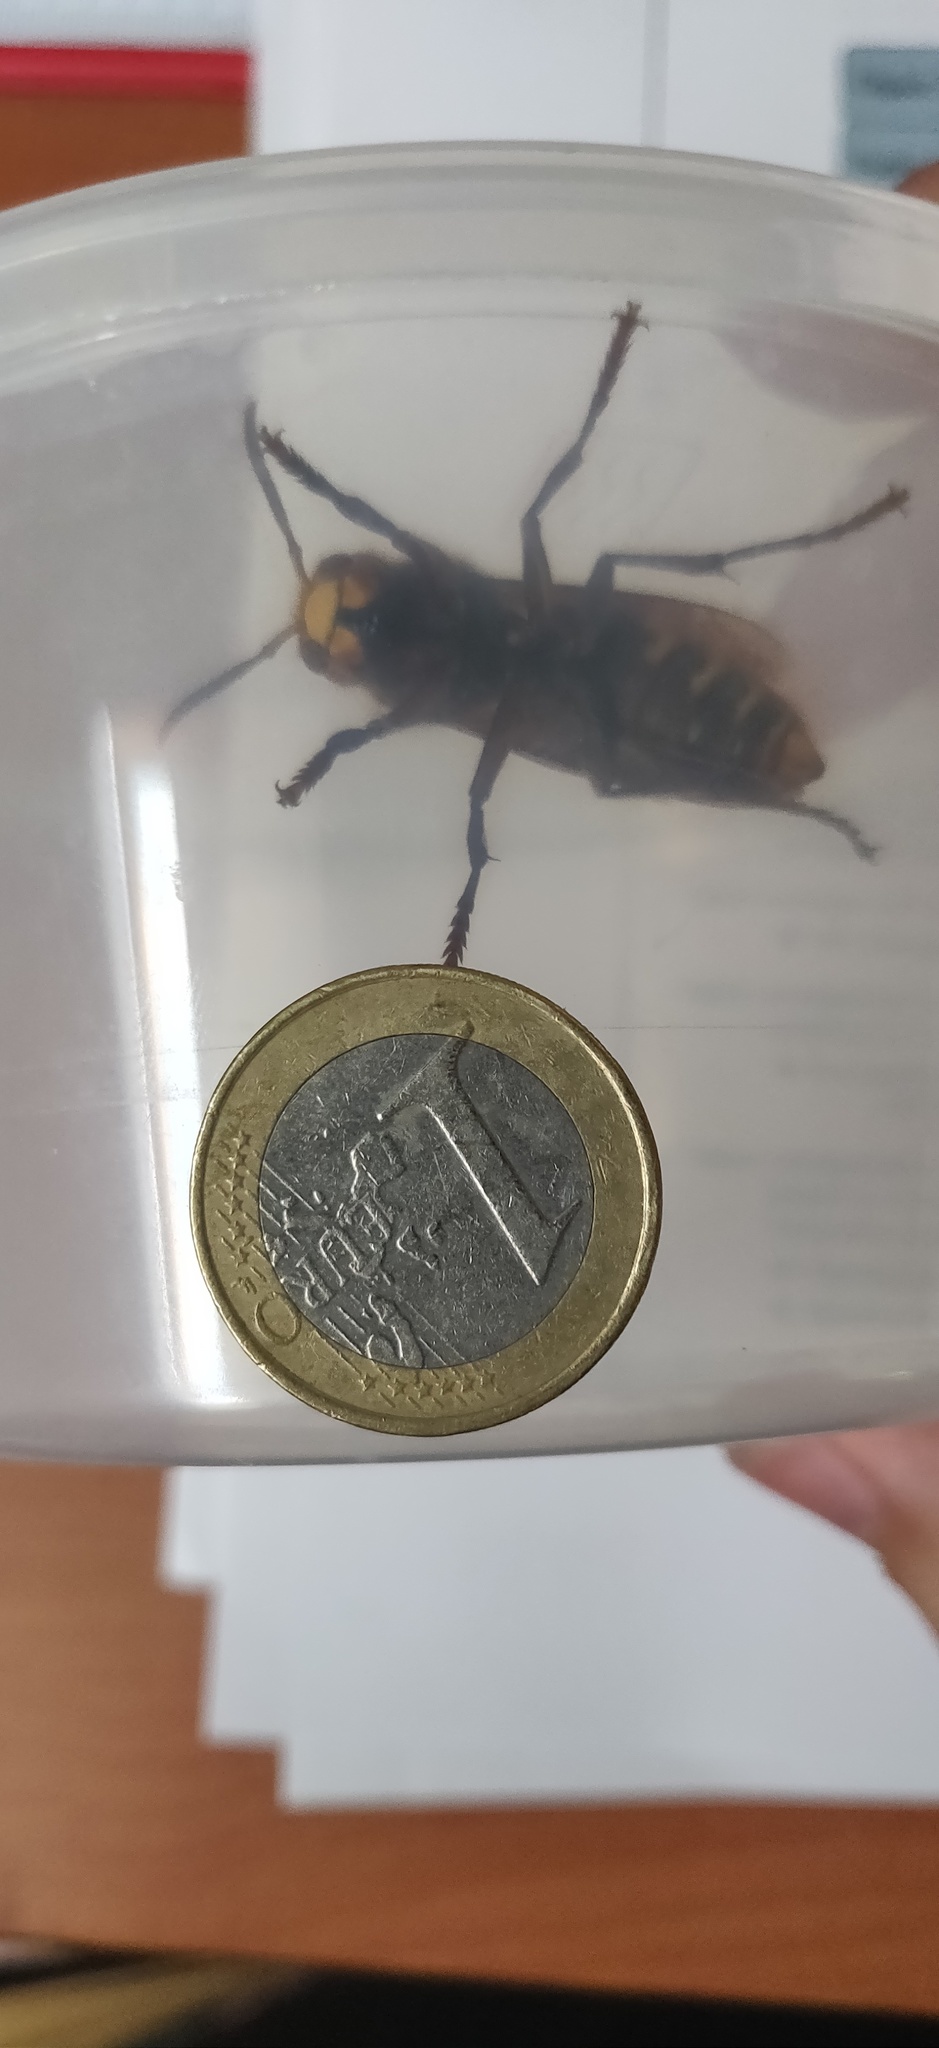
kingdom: Animalia
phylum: Arthropoda
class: Insecta
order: Hymenoptera
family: Vespidae
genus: Vespa
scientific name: Vespa crabro
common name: Hornet
